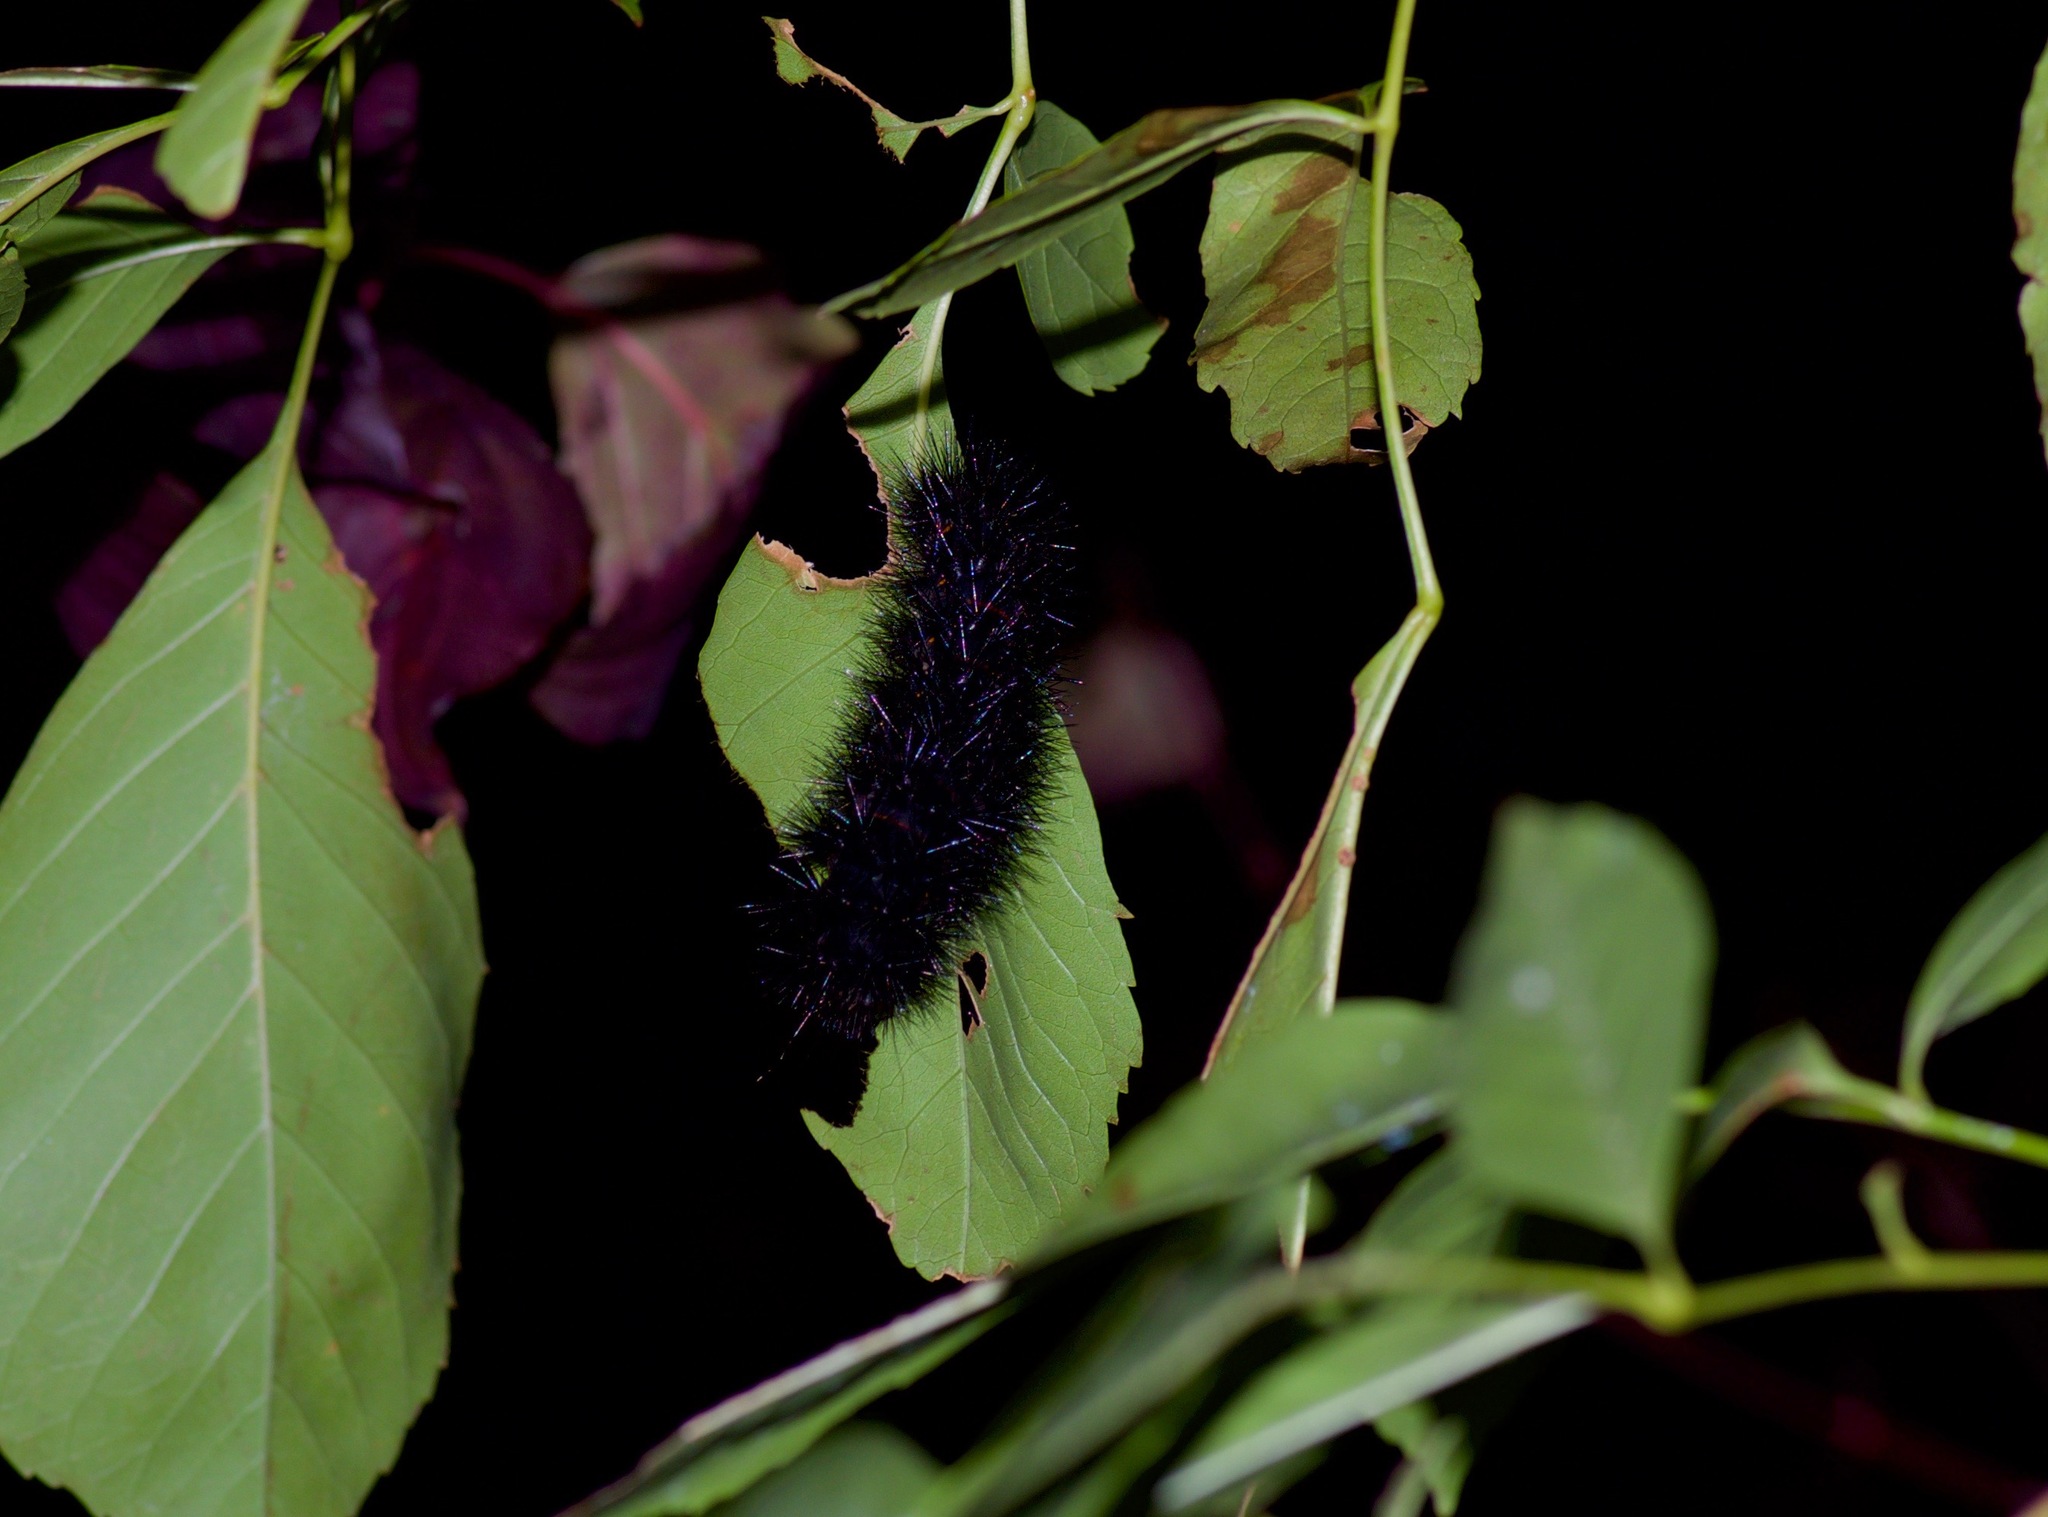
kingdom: Animalia
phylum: Arthropoda
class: Insecta
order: Lepidoptera
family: Erebidae
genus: Hypercompe
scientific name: Hypercompe scribonia
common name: Giant leopard moth
